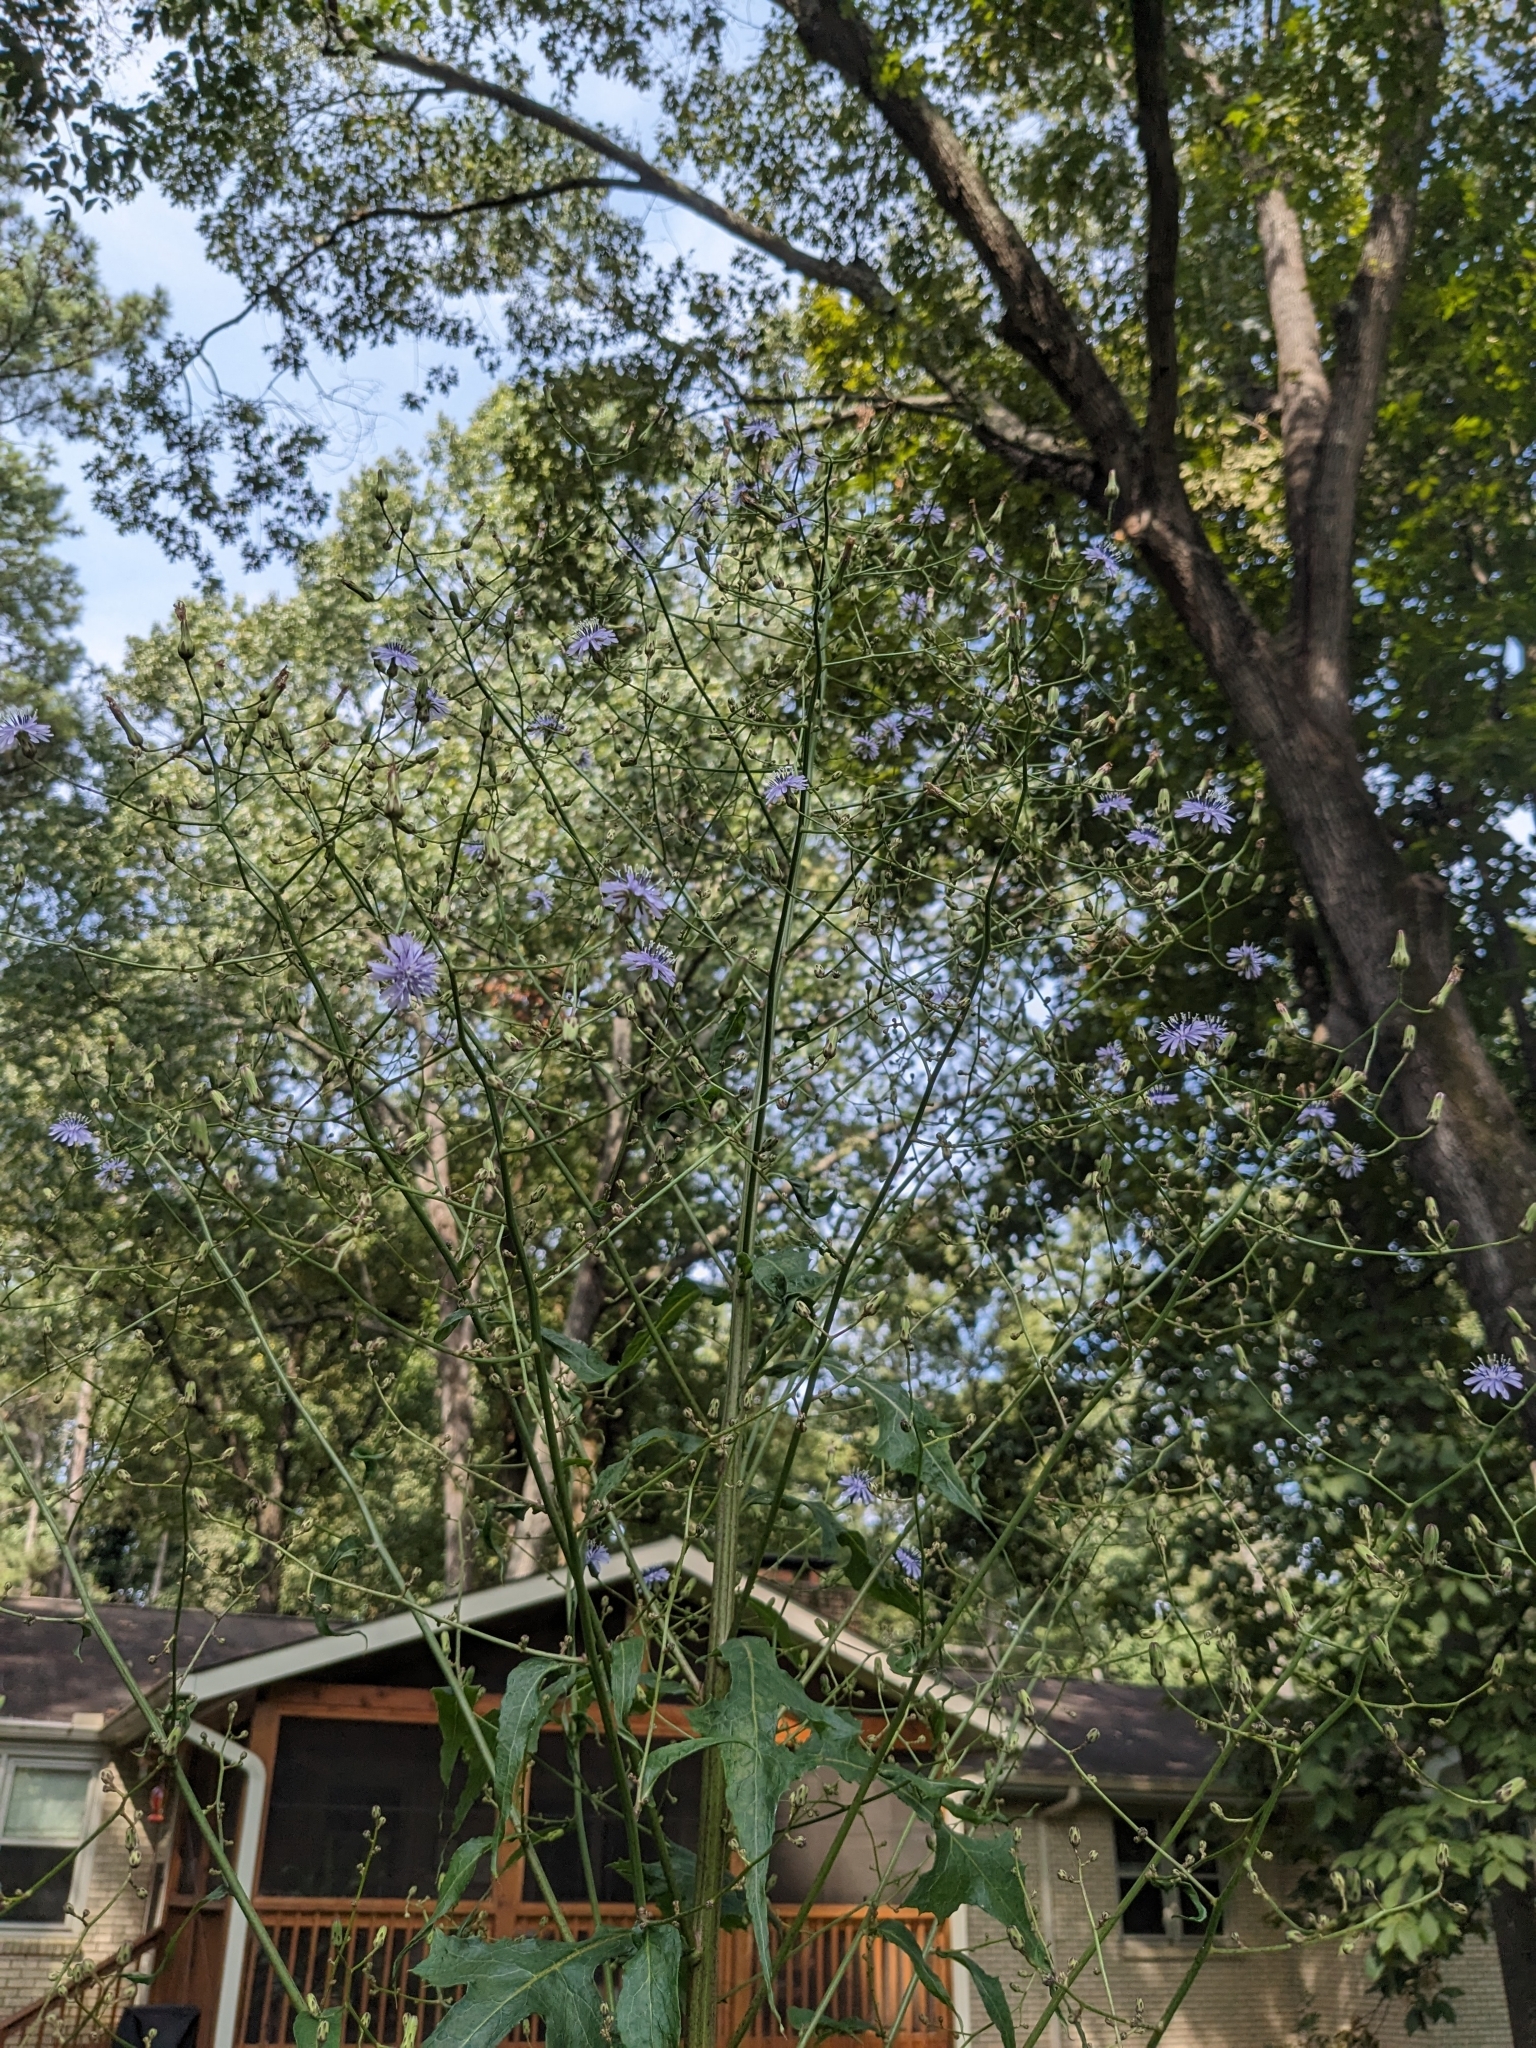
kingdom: Plantae
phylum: Tracheophyta
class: Magnoliopsida
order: Asterales
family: Asteraceae
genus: Lactuca
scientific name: Lactuca floridana
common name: Woodland lettuce
